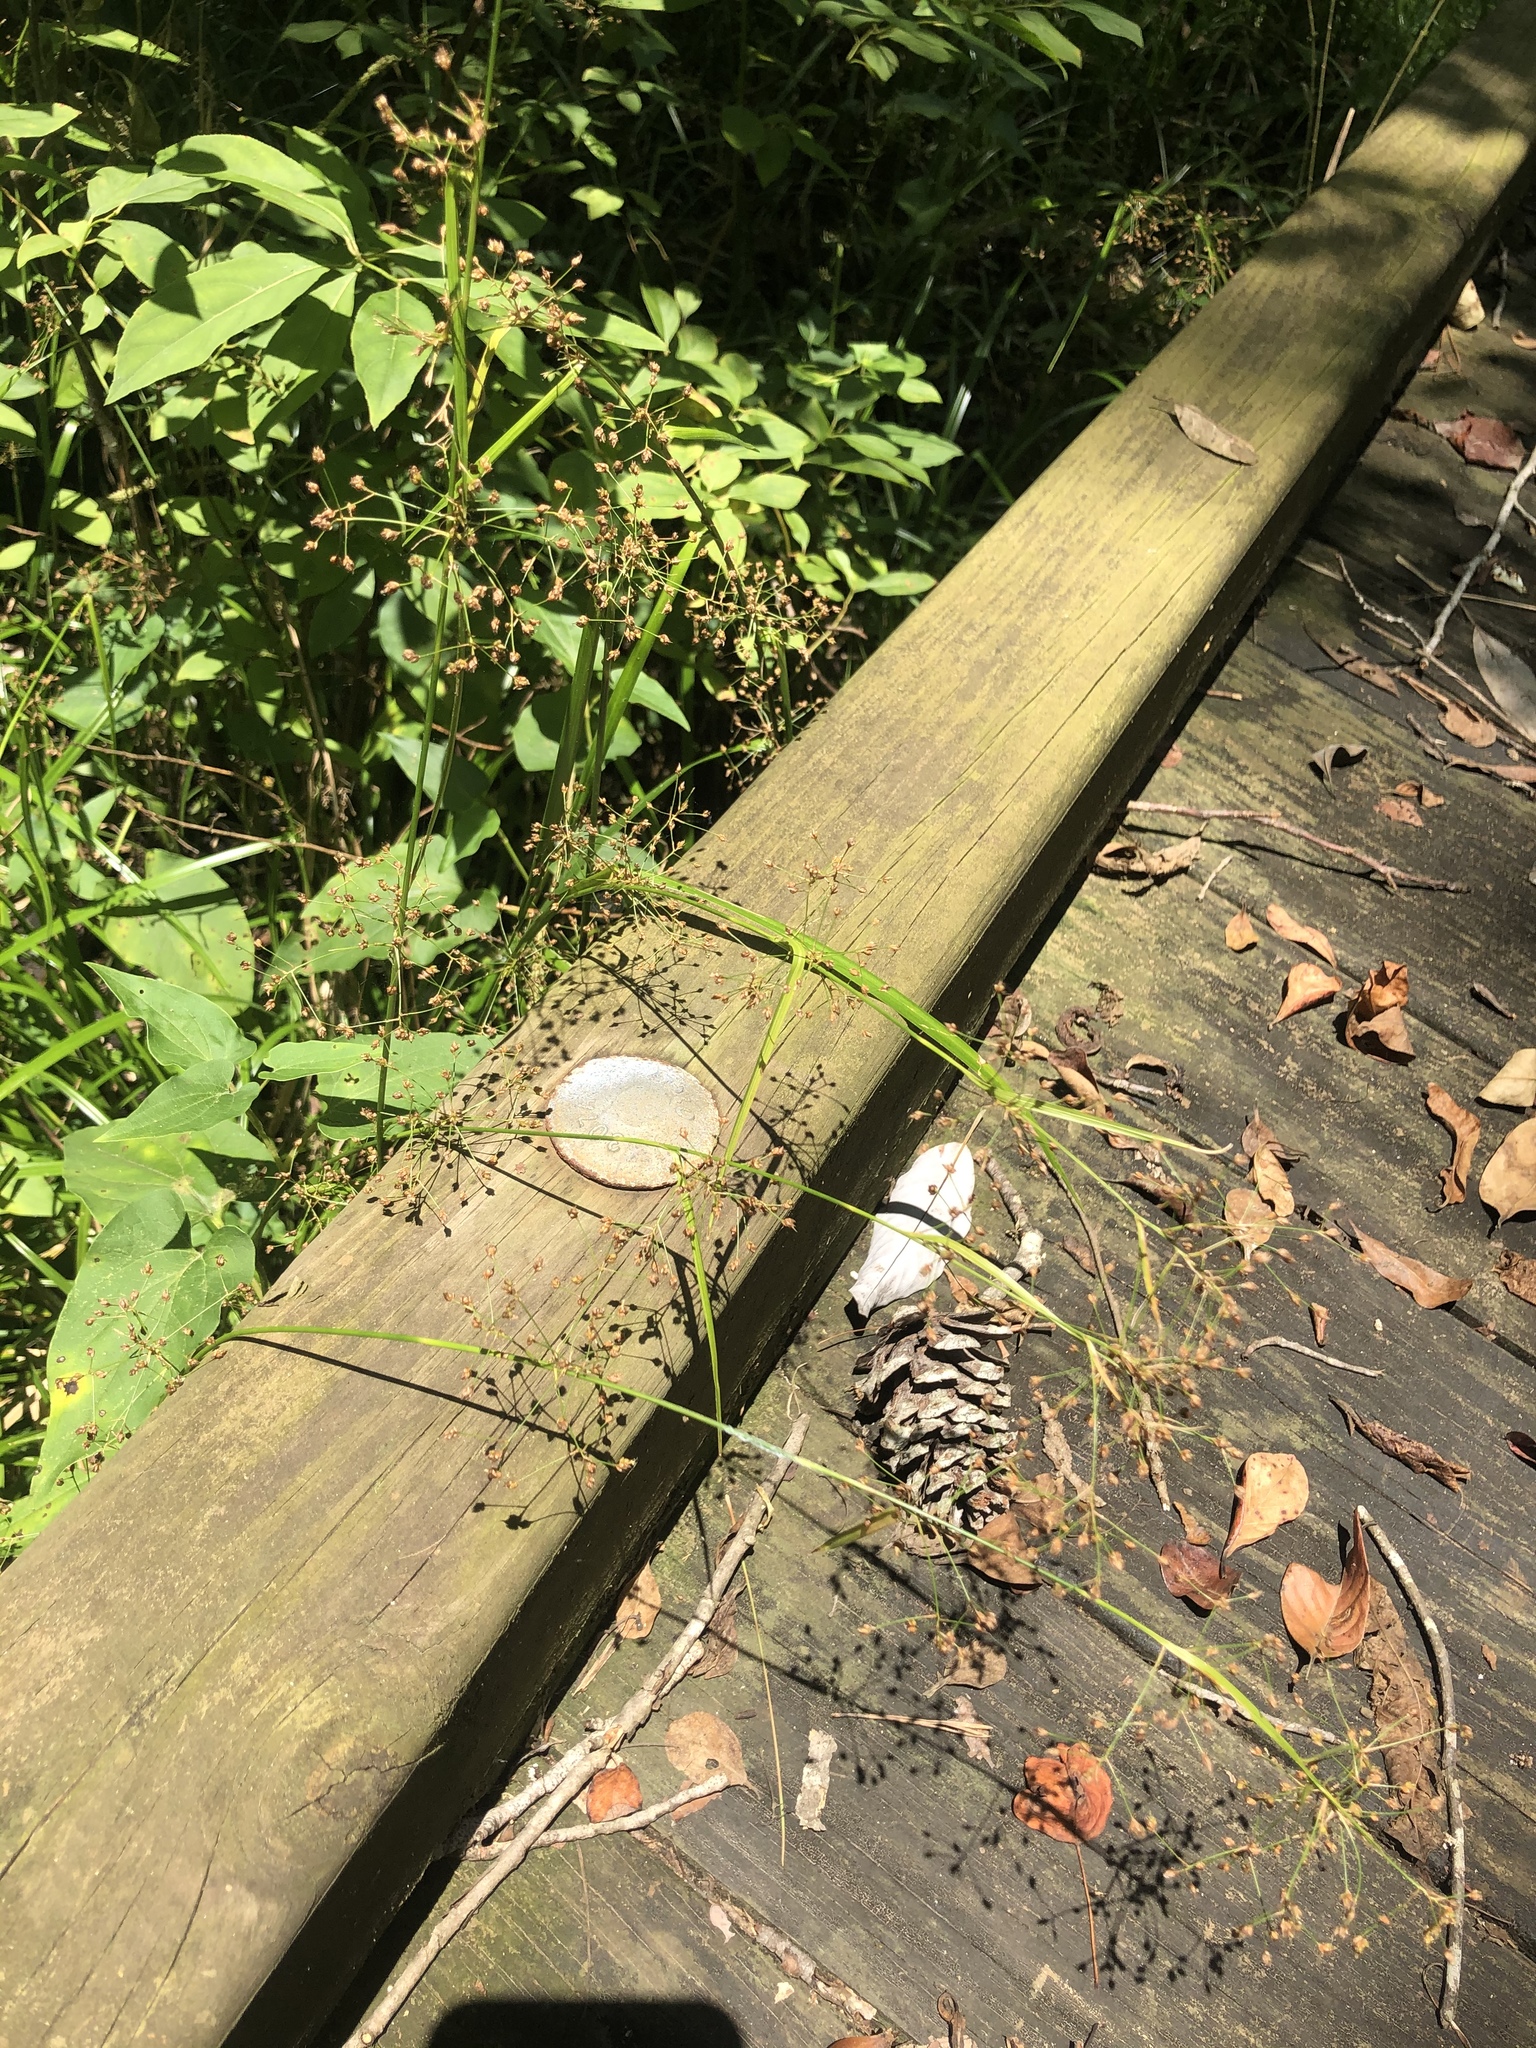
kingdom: Plantae
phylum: Tracheophyta
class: Liliopsida
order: Poales
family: Cyperaceae
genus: Rhynchospora
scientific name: Rhynchospora miliacea
